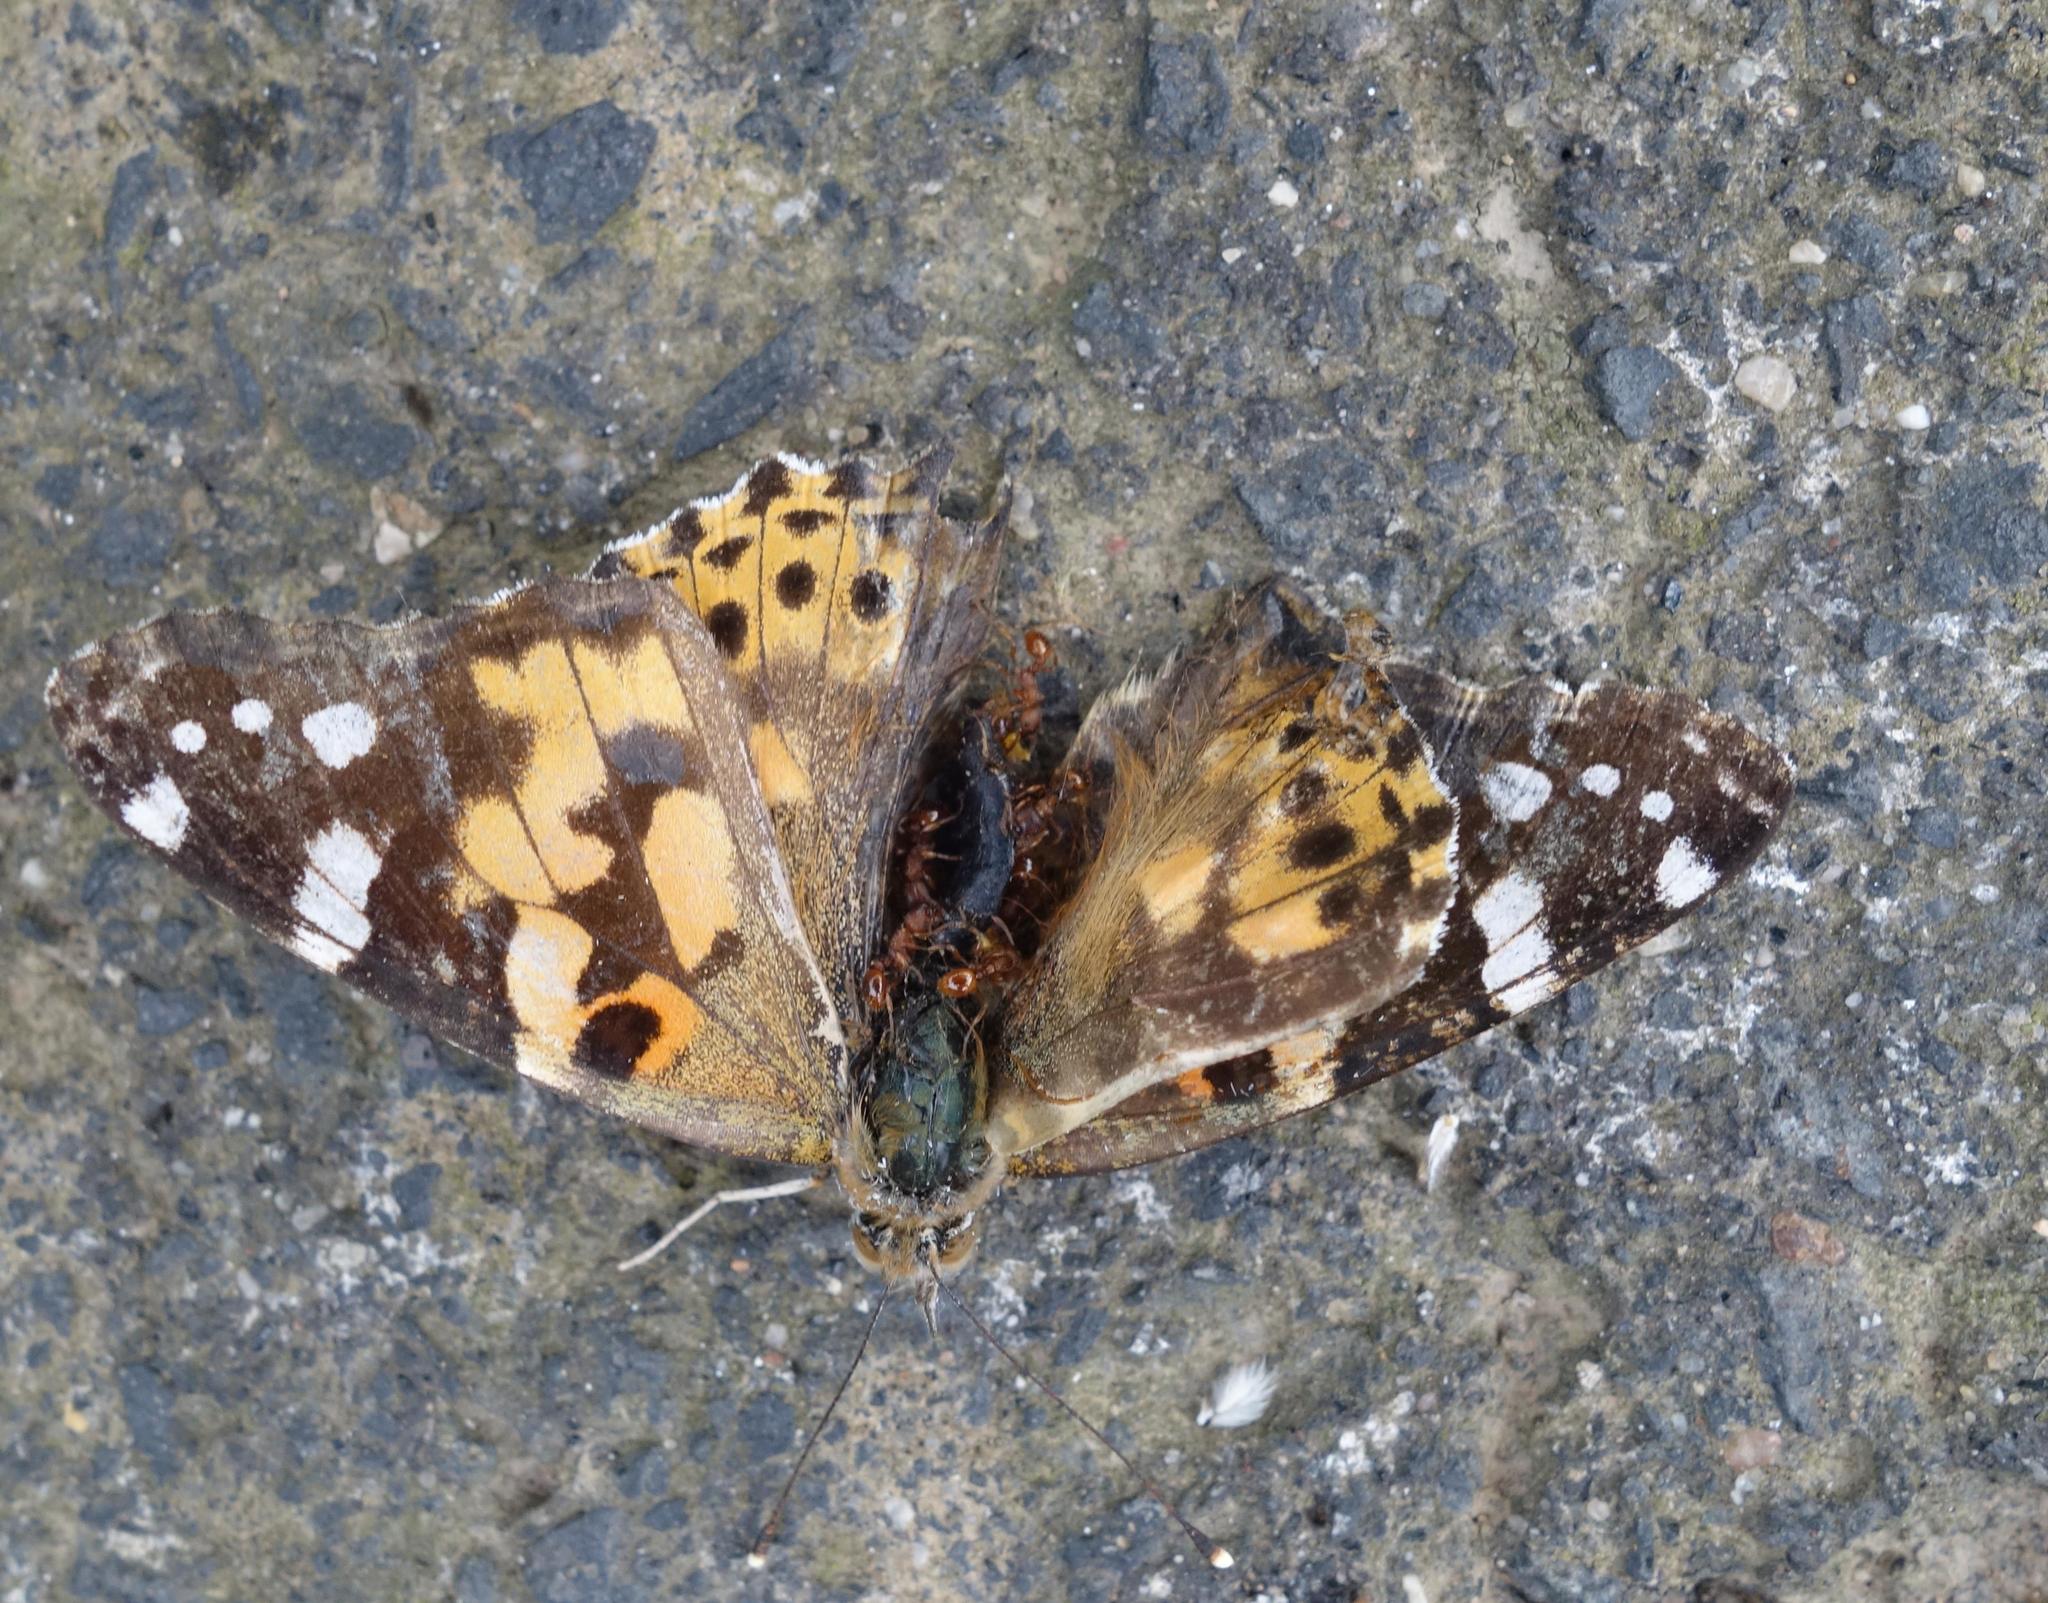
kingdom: Animalia
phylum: Arthropoda
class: Insecta
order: Lepidoptera
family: Nymphalidae
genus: Vanessa
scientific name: Vanessa cardui
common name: Painted lady
